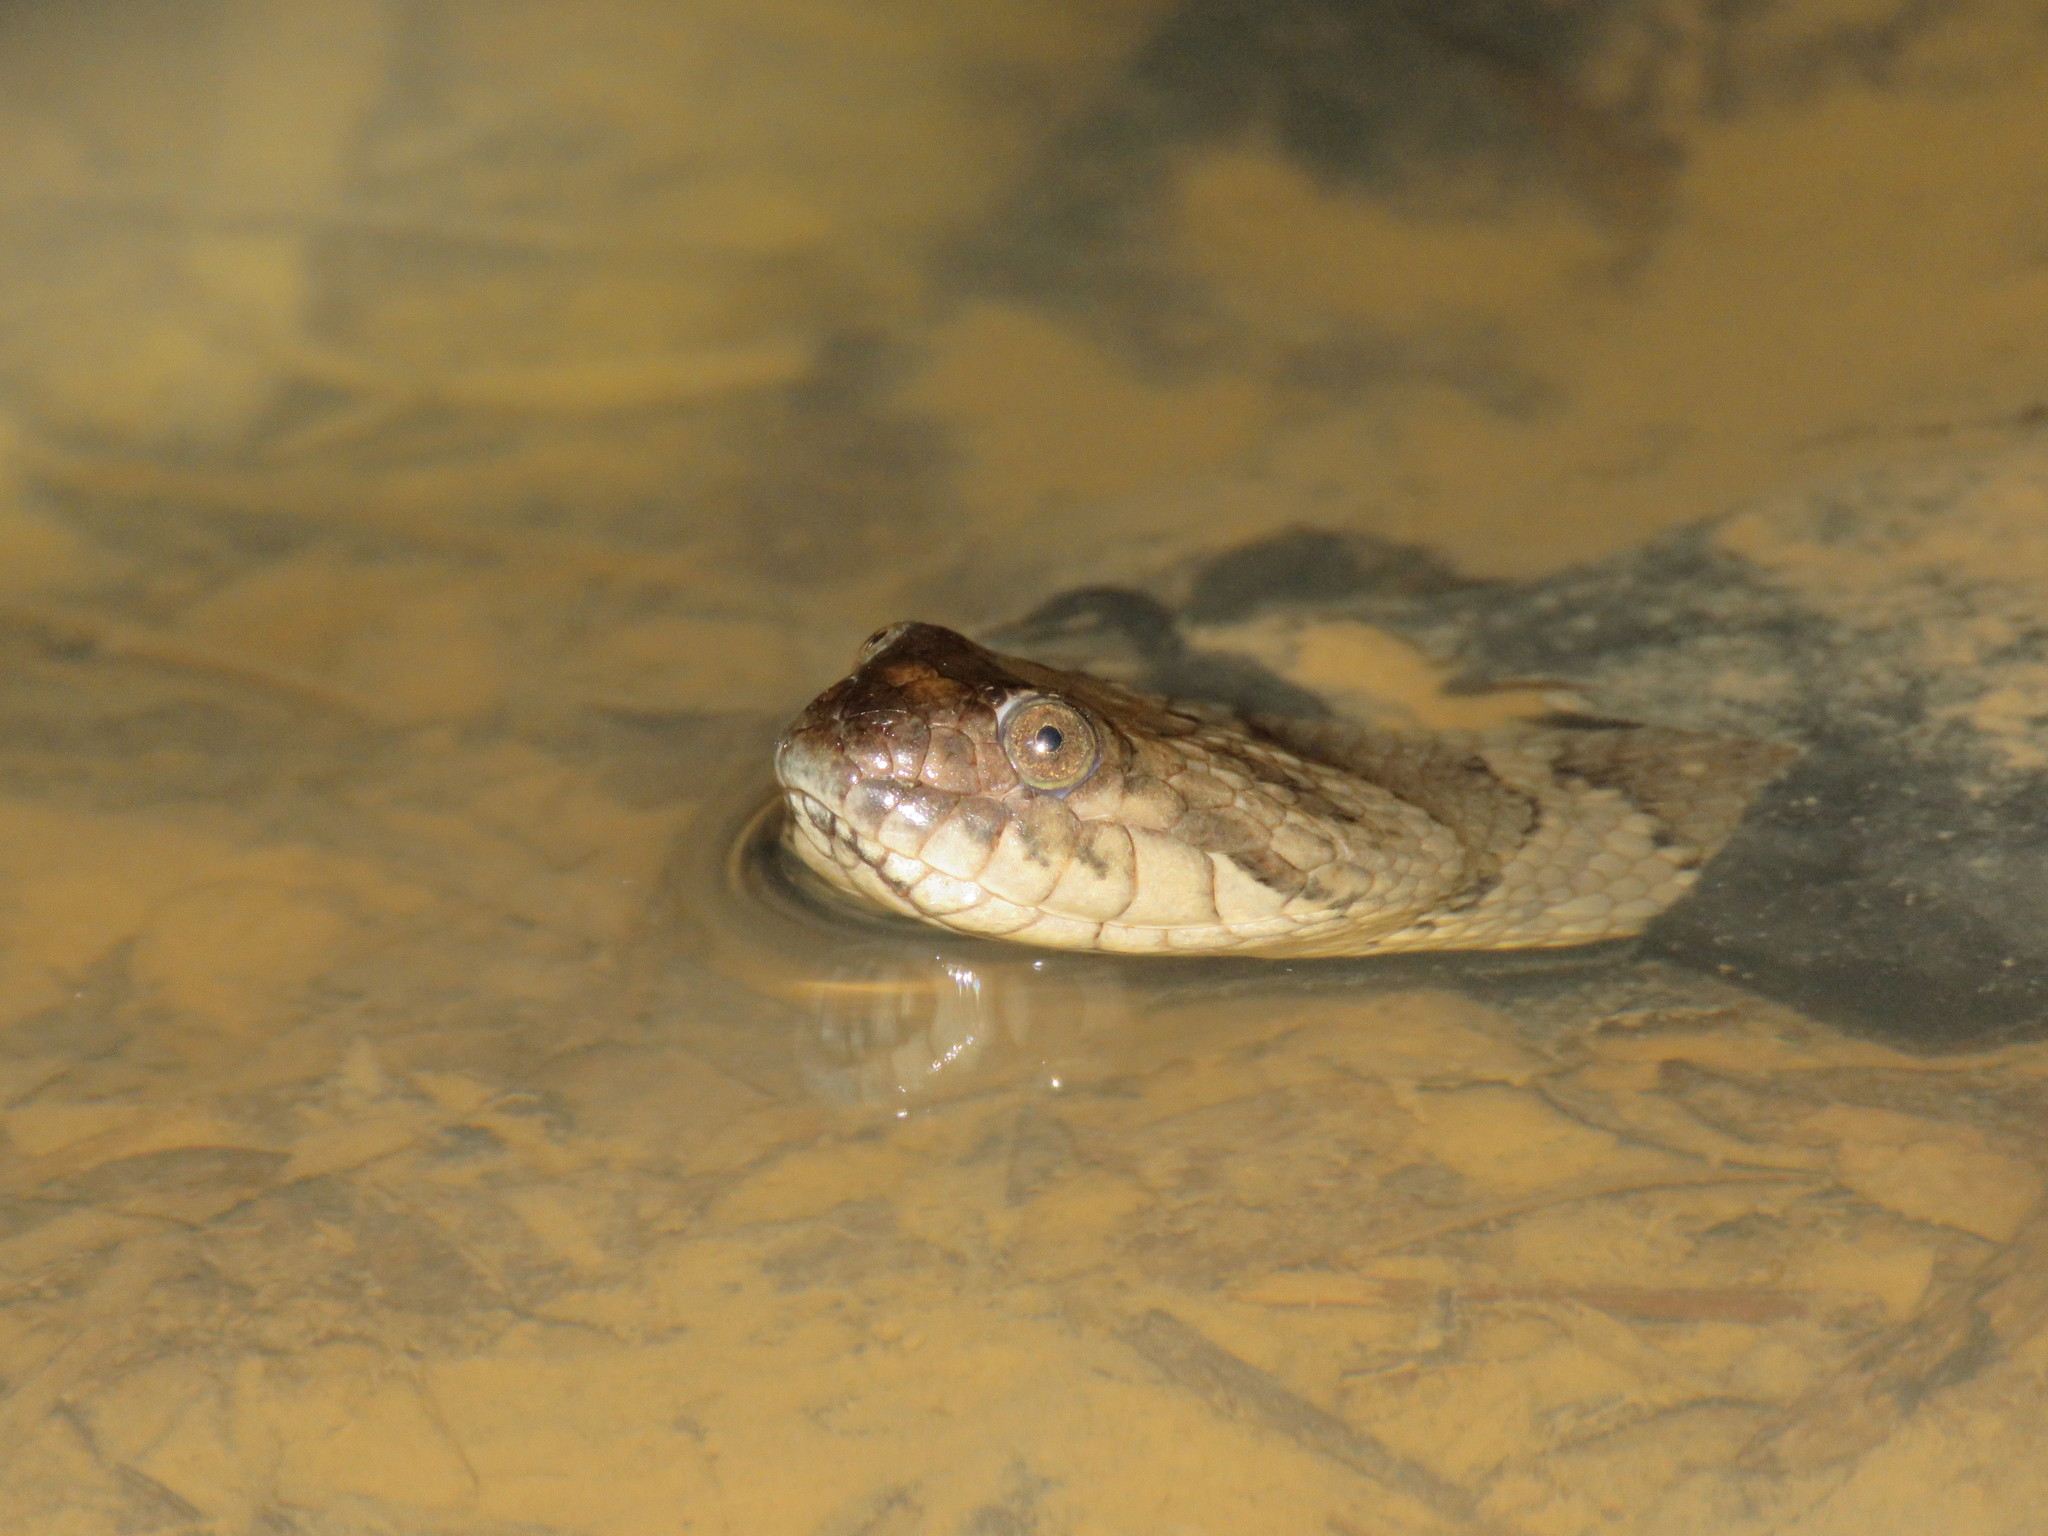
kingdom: Animalia
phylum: Chordata
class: Squamata
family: Colubridae
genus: Helicops
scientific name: Helicops angulatus
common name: Mountain keelback
